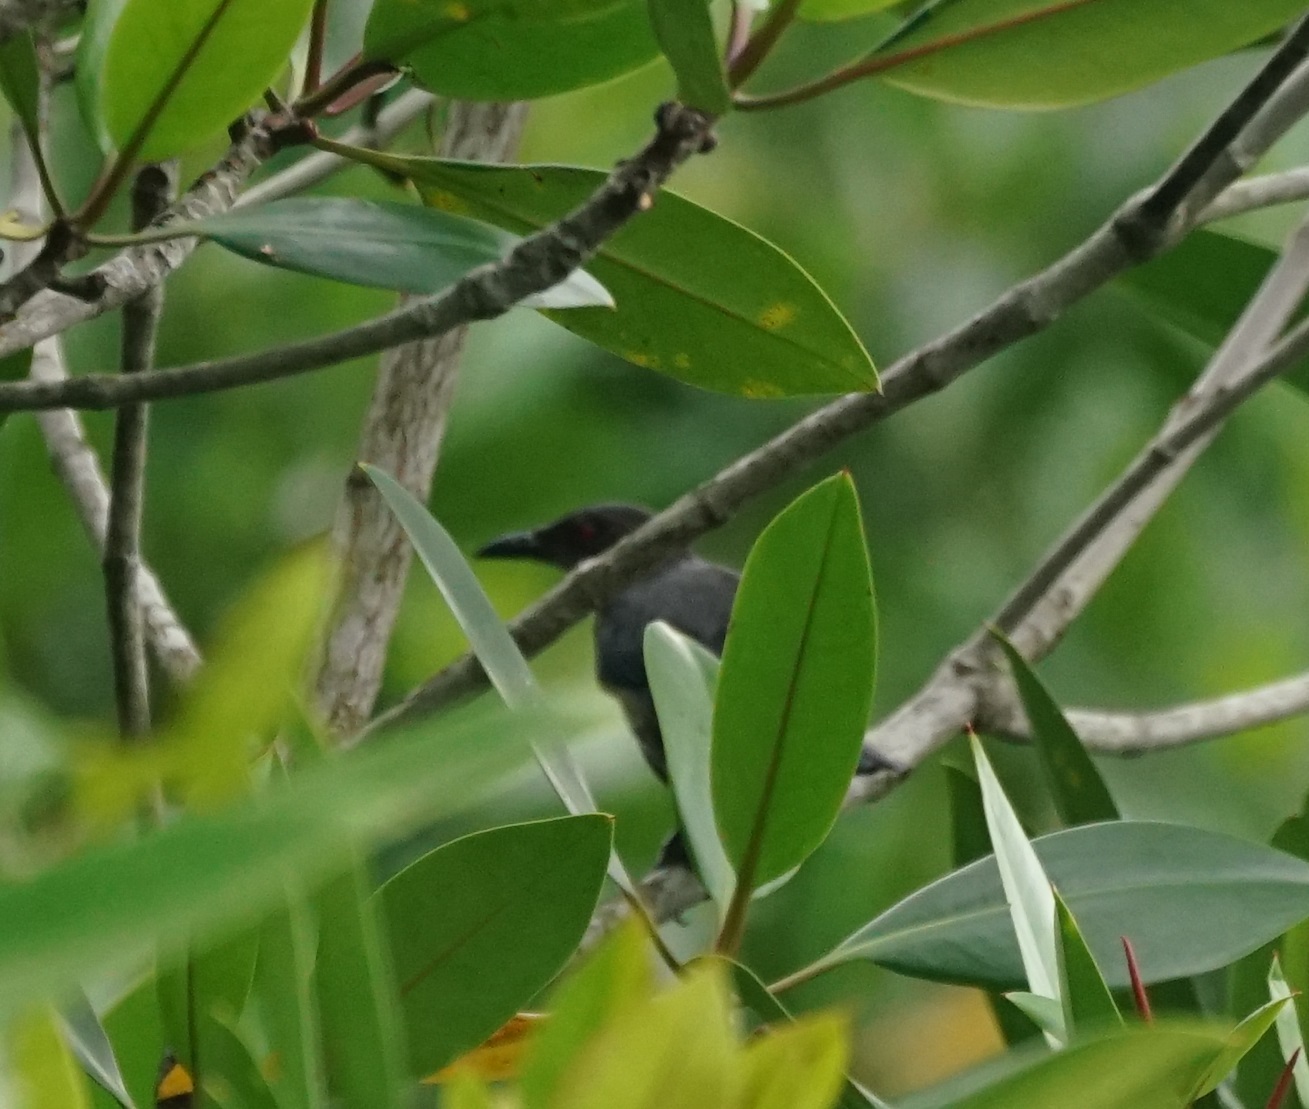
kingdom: Animalia
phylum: Chordata
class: Aves
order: Passeriformes
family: Sturnidae
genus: Aplonis
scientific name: Aplonis panayensis
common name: Asian glossy starling
